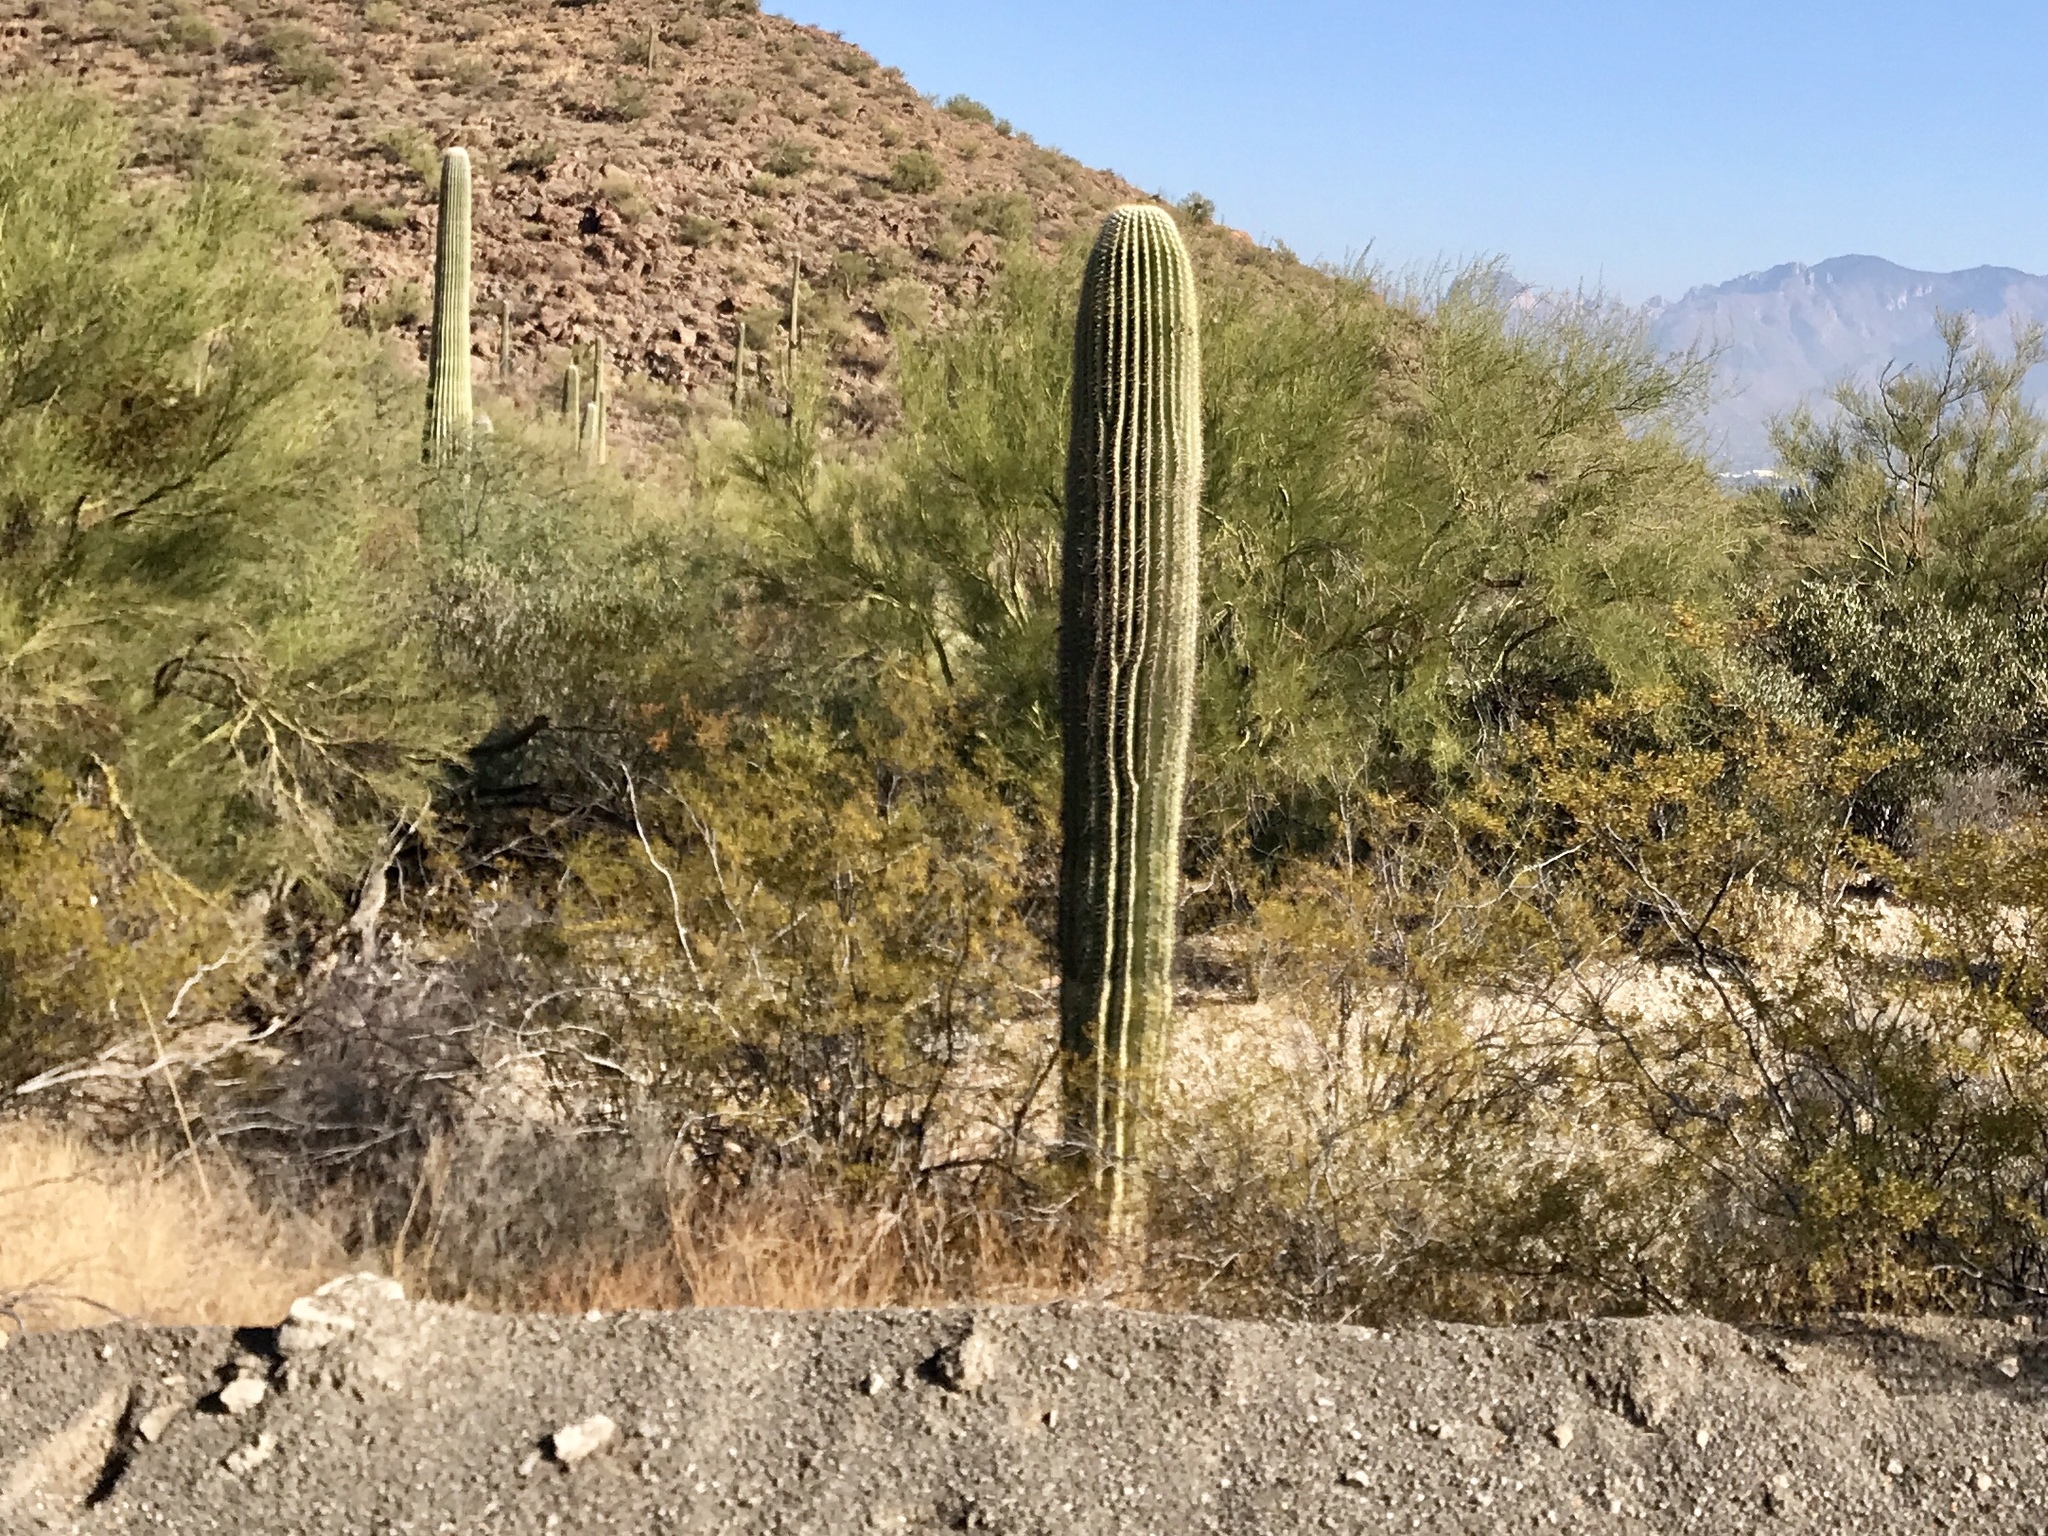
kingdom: Plantae
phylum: Tracheophyta
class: Magnoliopsida
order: Caryophyllales
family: Cactaceae
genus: Carnegiea
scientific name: Carnegiea gigantea
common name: Saguaro
